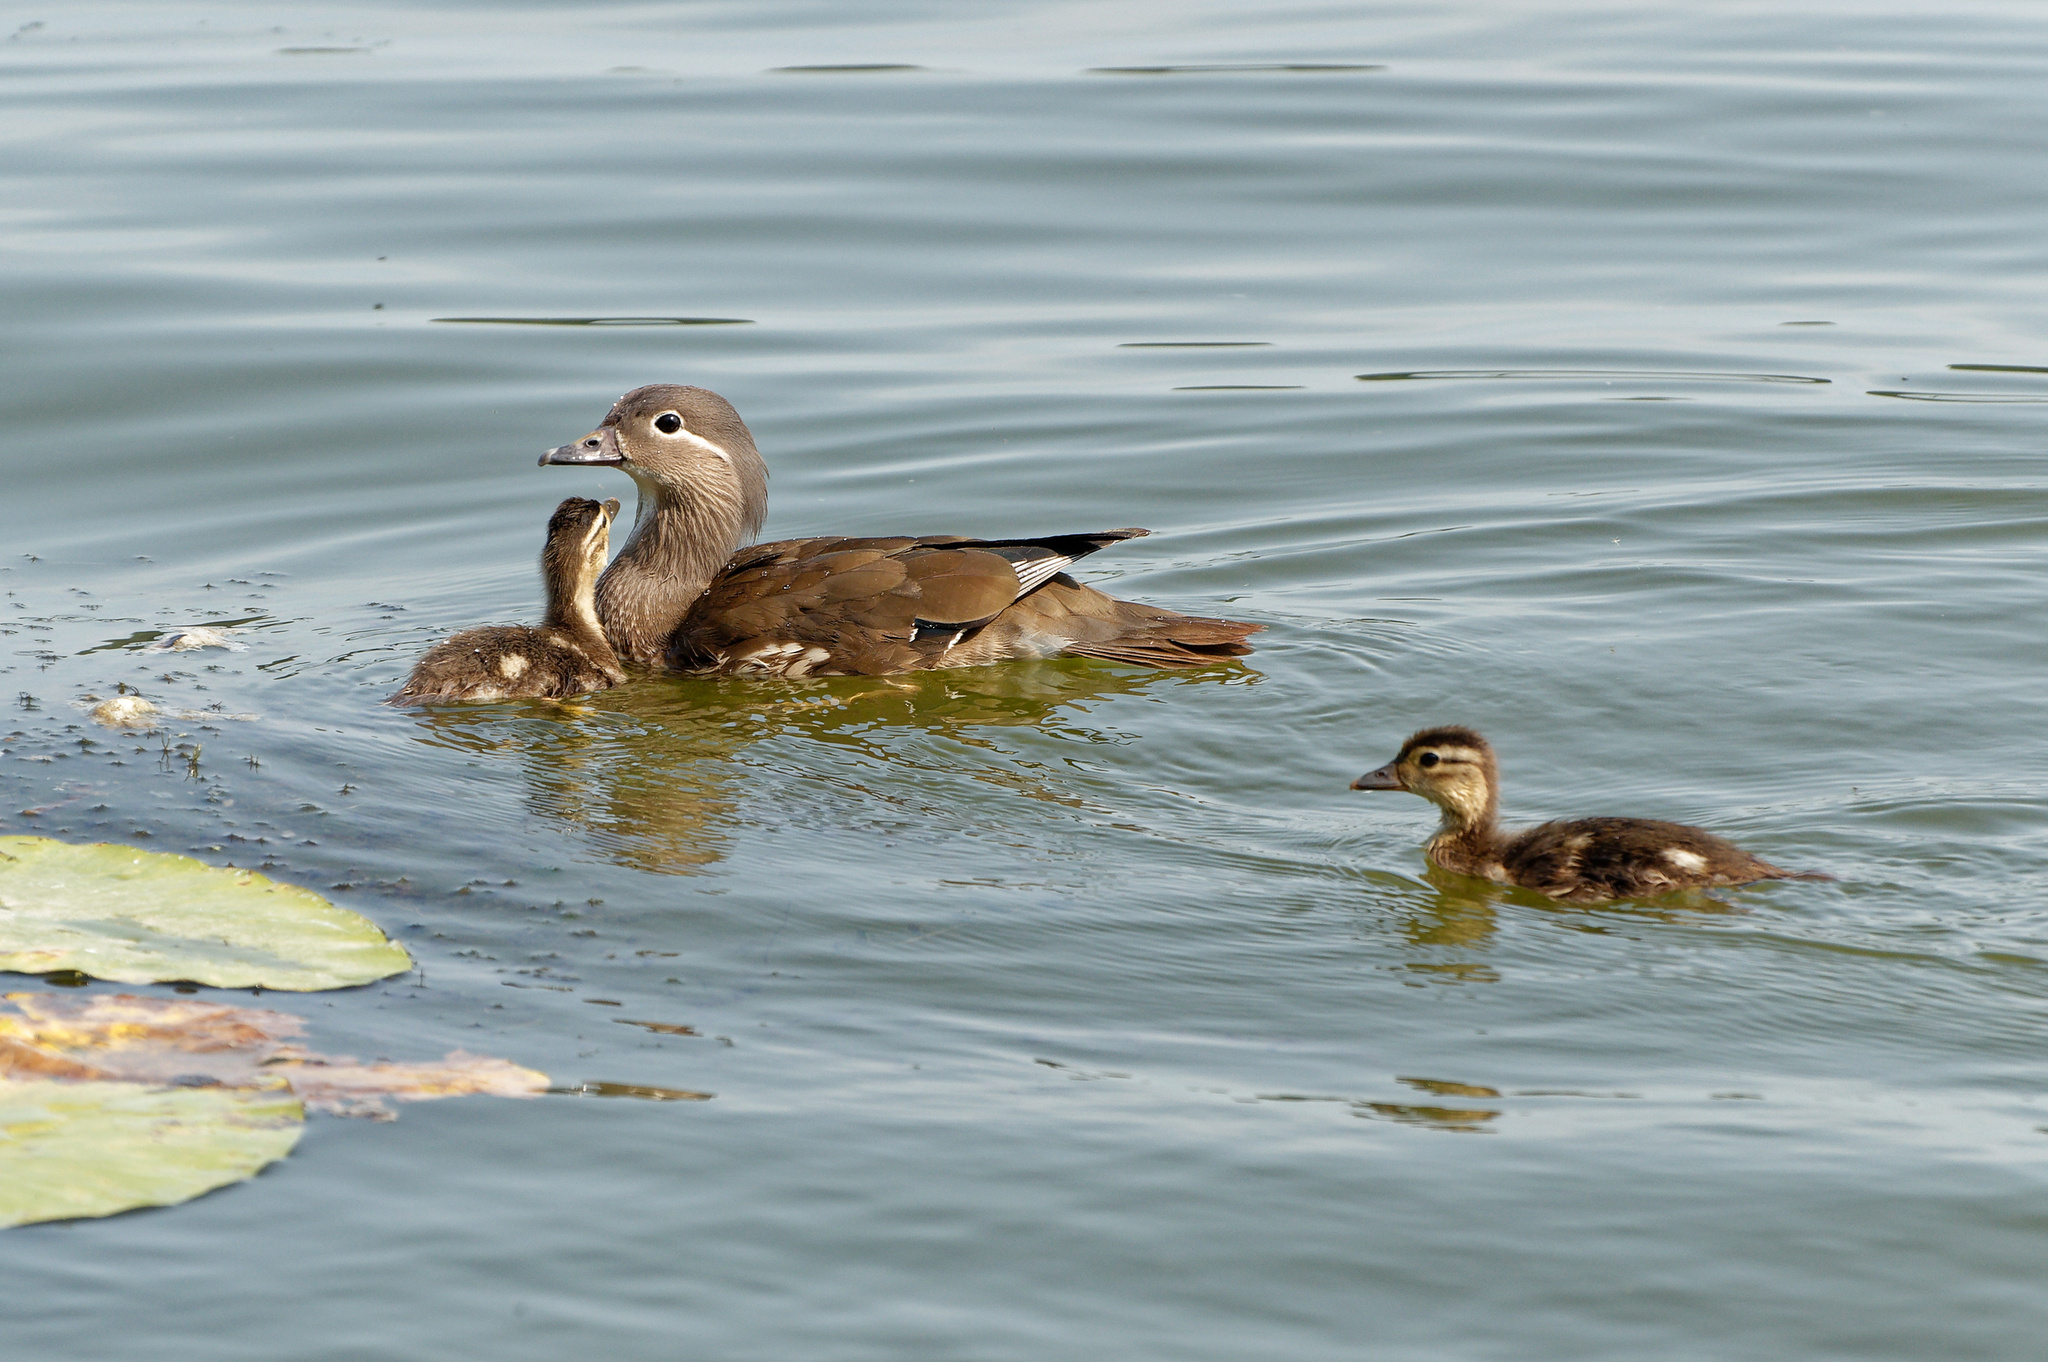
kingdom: Animalia
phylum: Chordata
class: Aves
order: Anseriformes
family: Anatidae
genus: Aix
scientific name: Aix galericulata
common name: Mandarin duck
